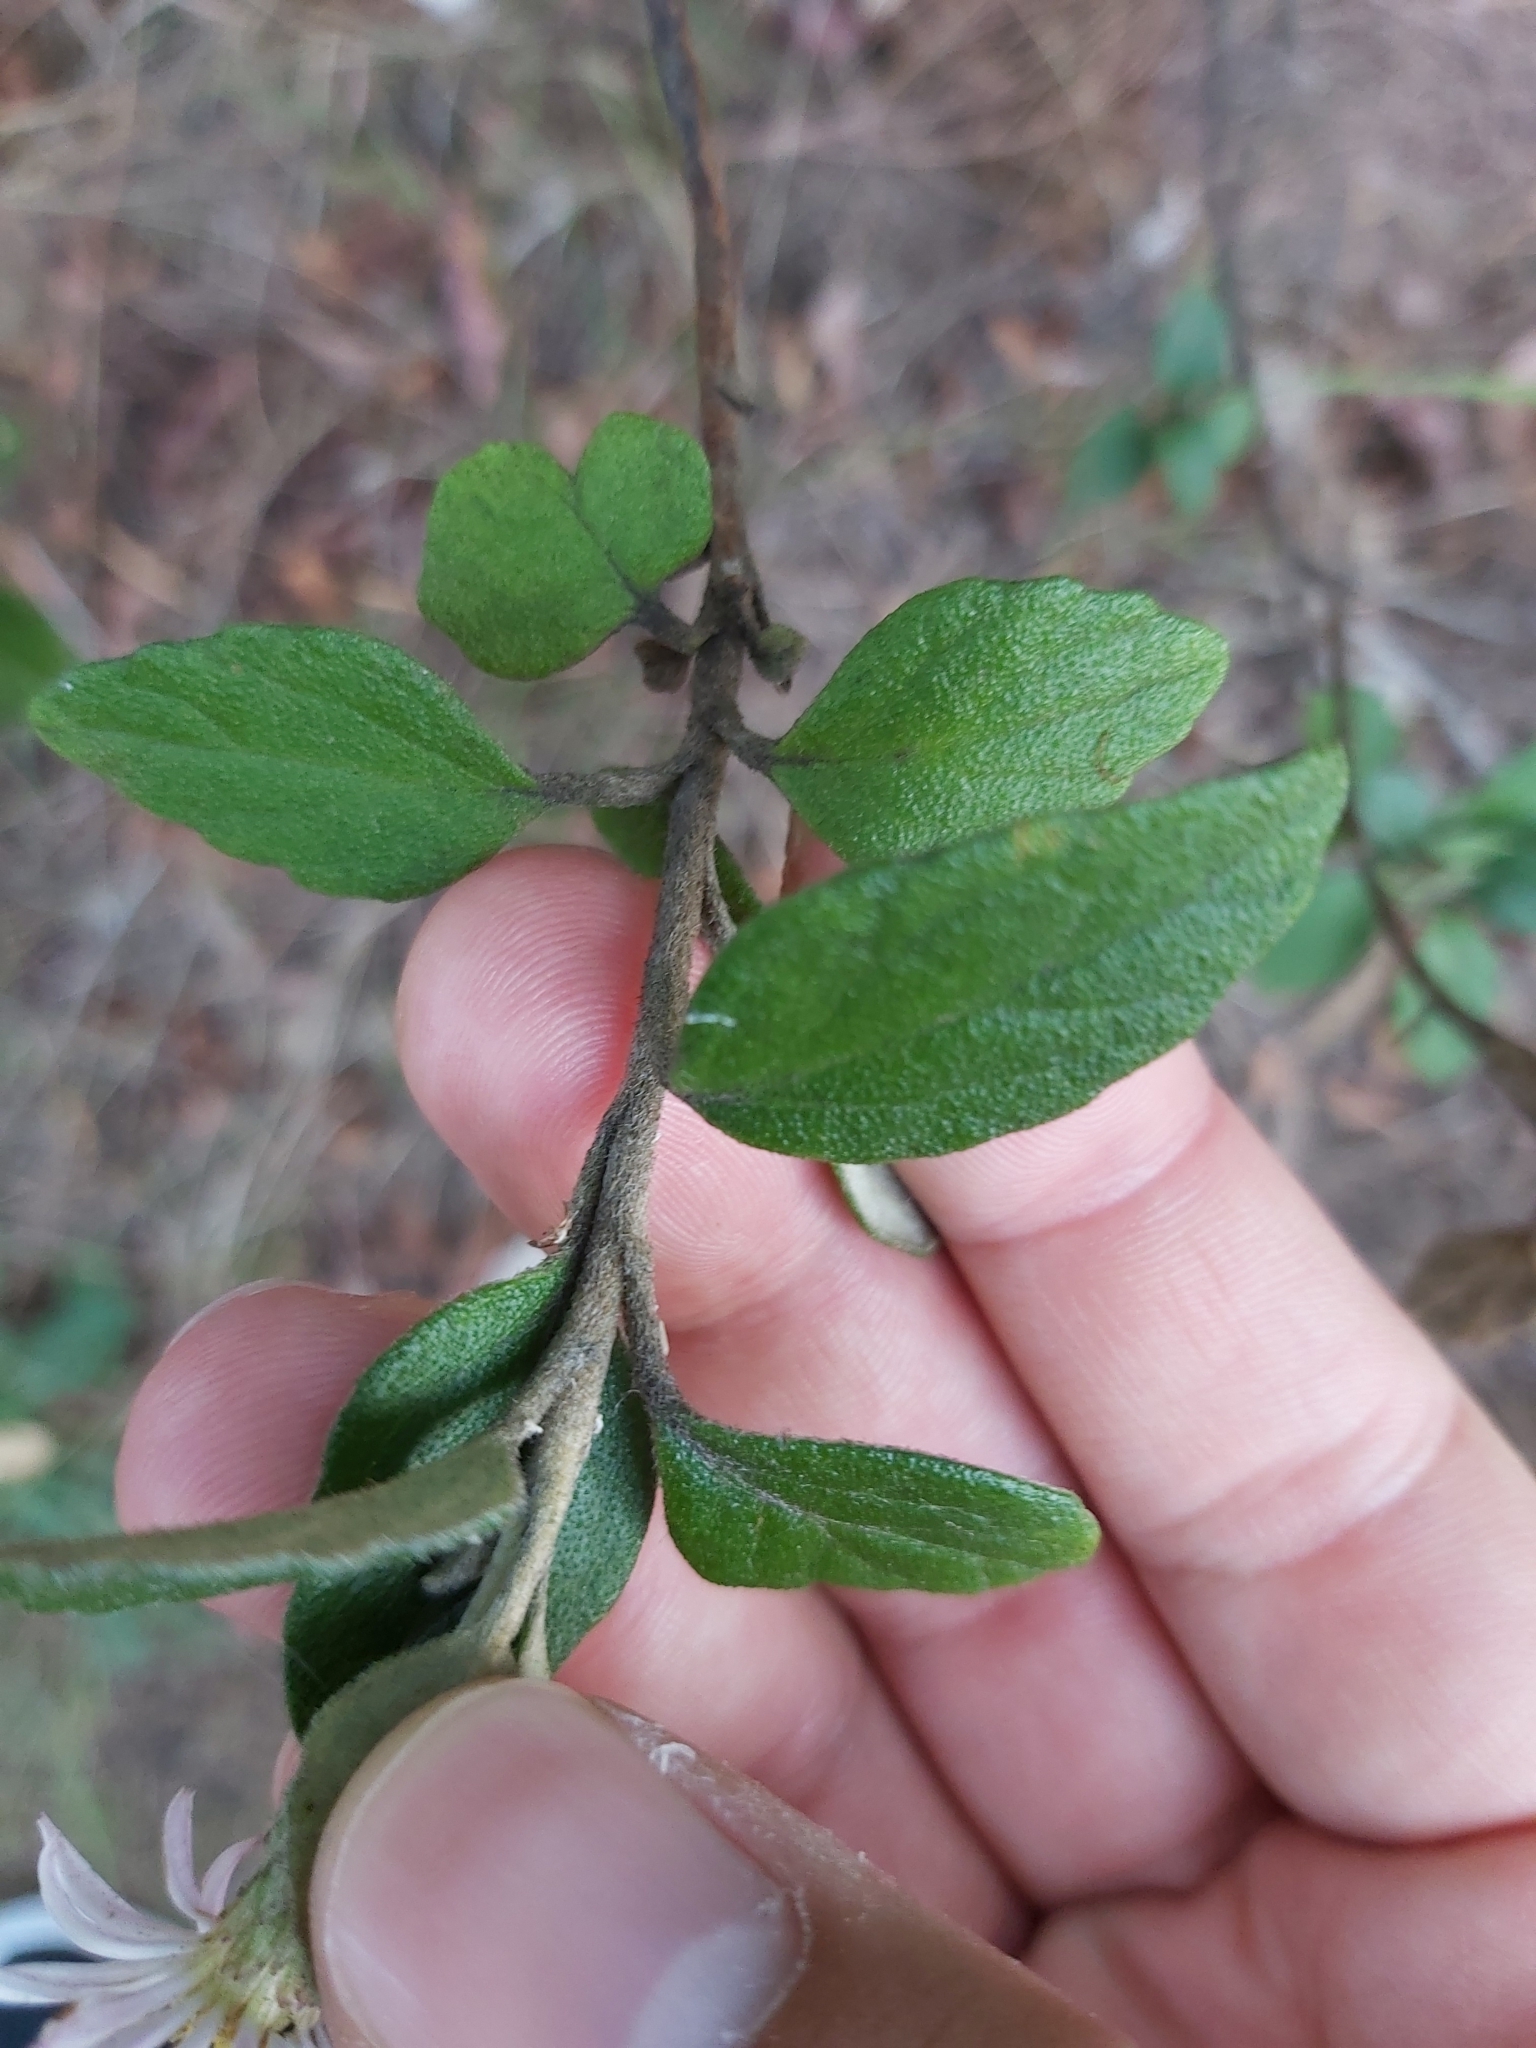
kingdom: Plantae
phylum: Tracheophyta
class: Magnoliopsida
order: Asterales
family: Asteraceae
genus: Olearia
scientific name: Olearia tomentosa
